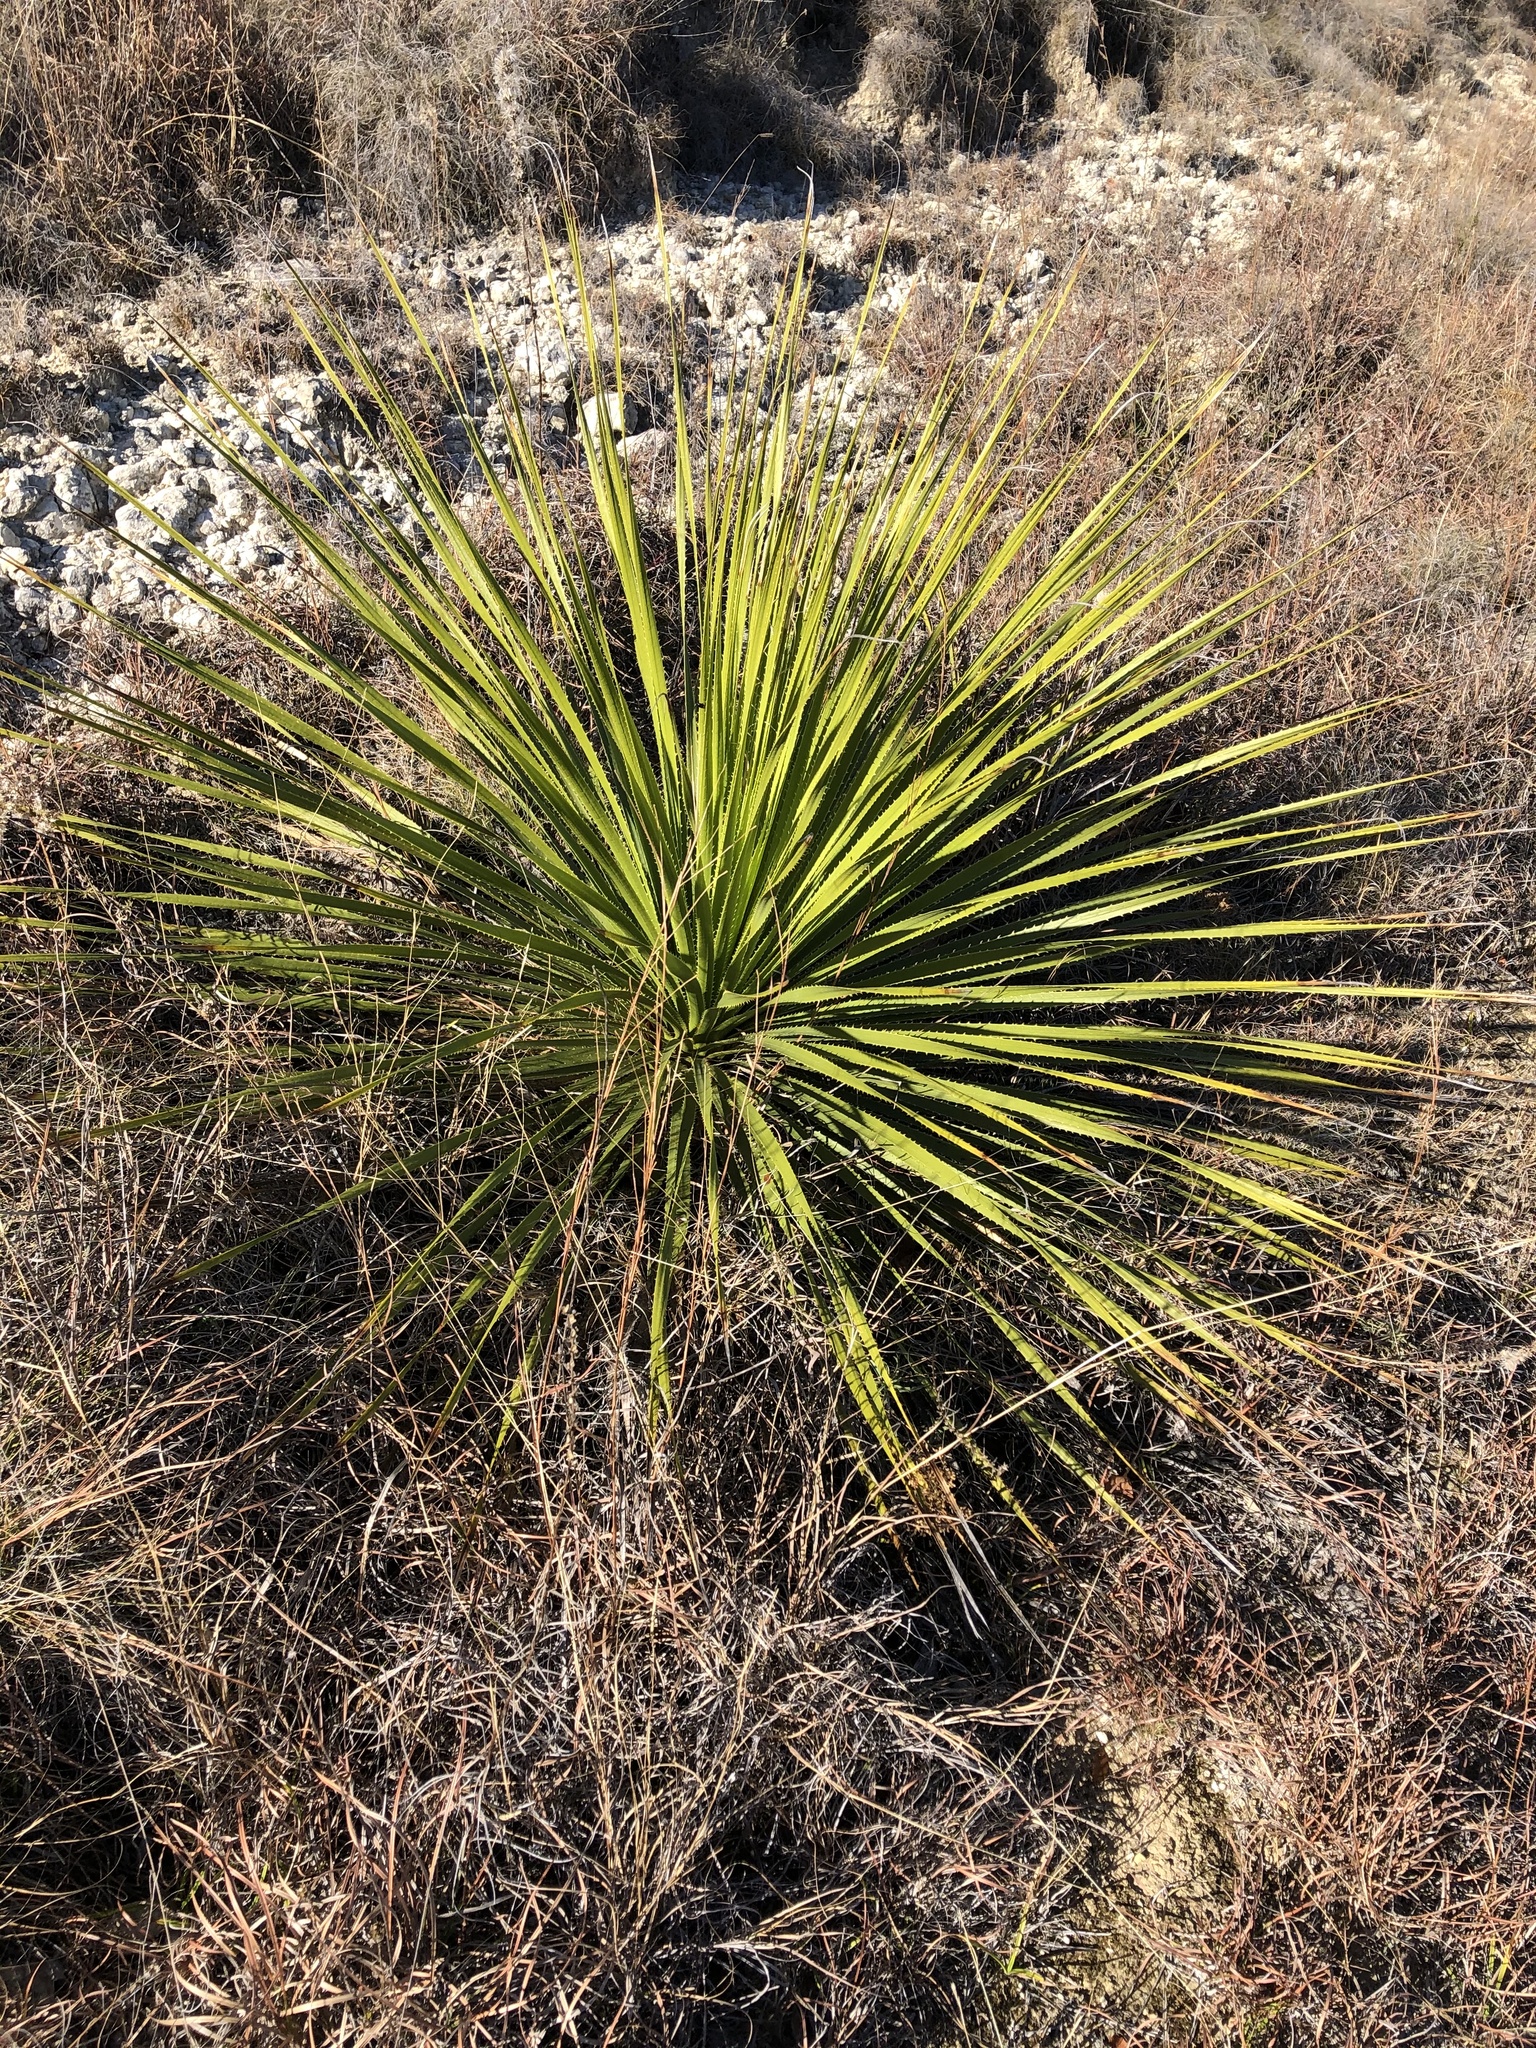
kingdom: Plantae
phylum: Tracheophyta
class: Liliopsida
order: Asparagales
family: Asparagaceae
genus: Dasylirion
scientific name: Dasylirion texanum
